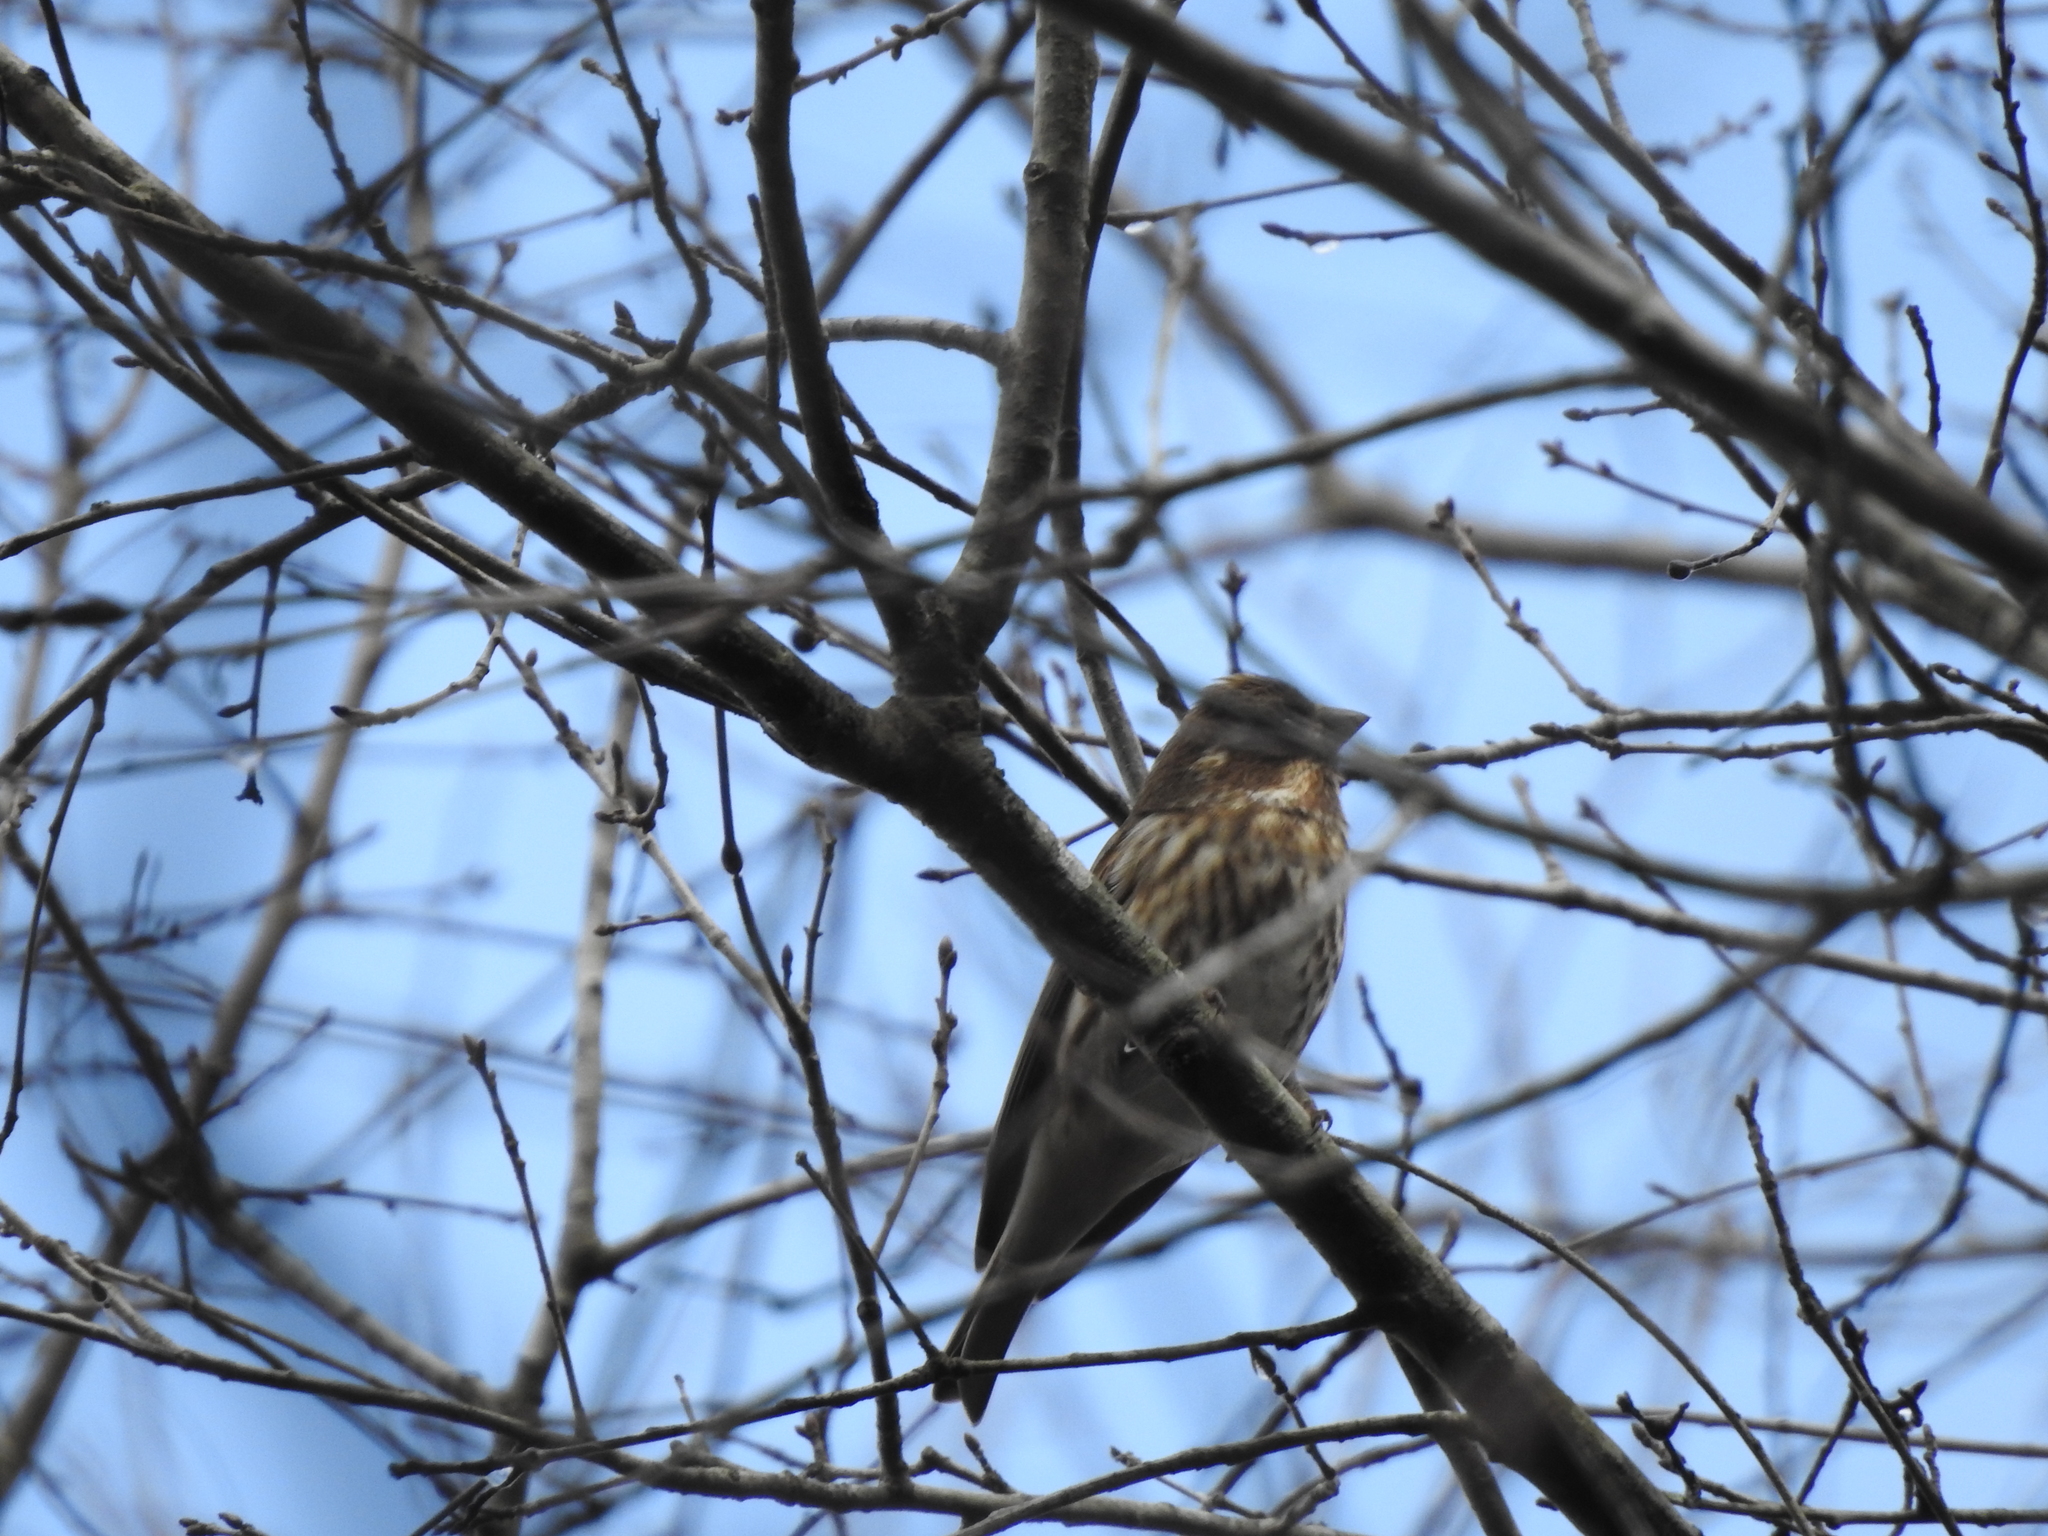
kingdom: Animalia
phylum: Chordata
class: Aves
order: Passeriformes
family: Fringillidae
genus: Haemorhous
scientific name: Haemorhous purpureus
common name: Purple finch
